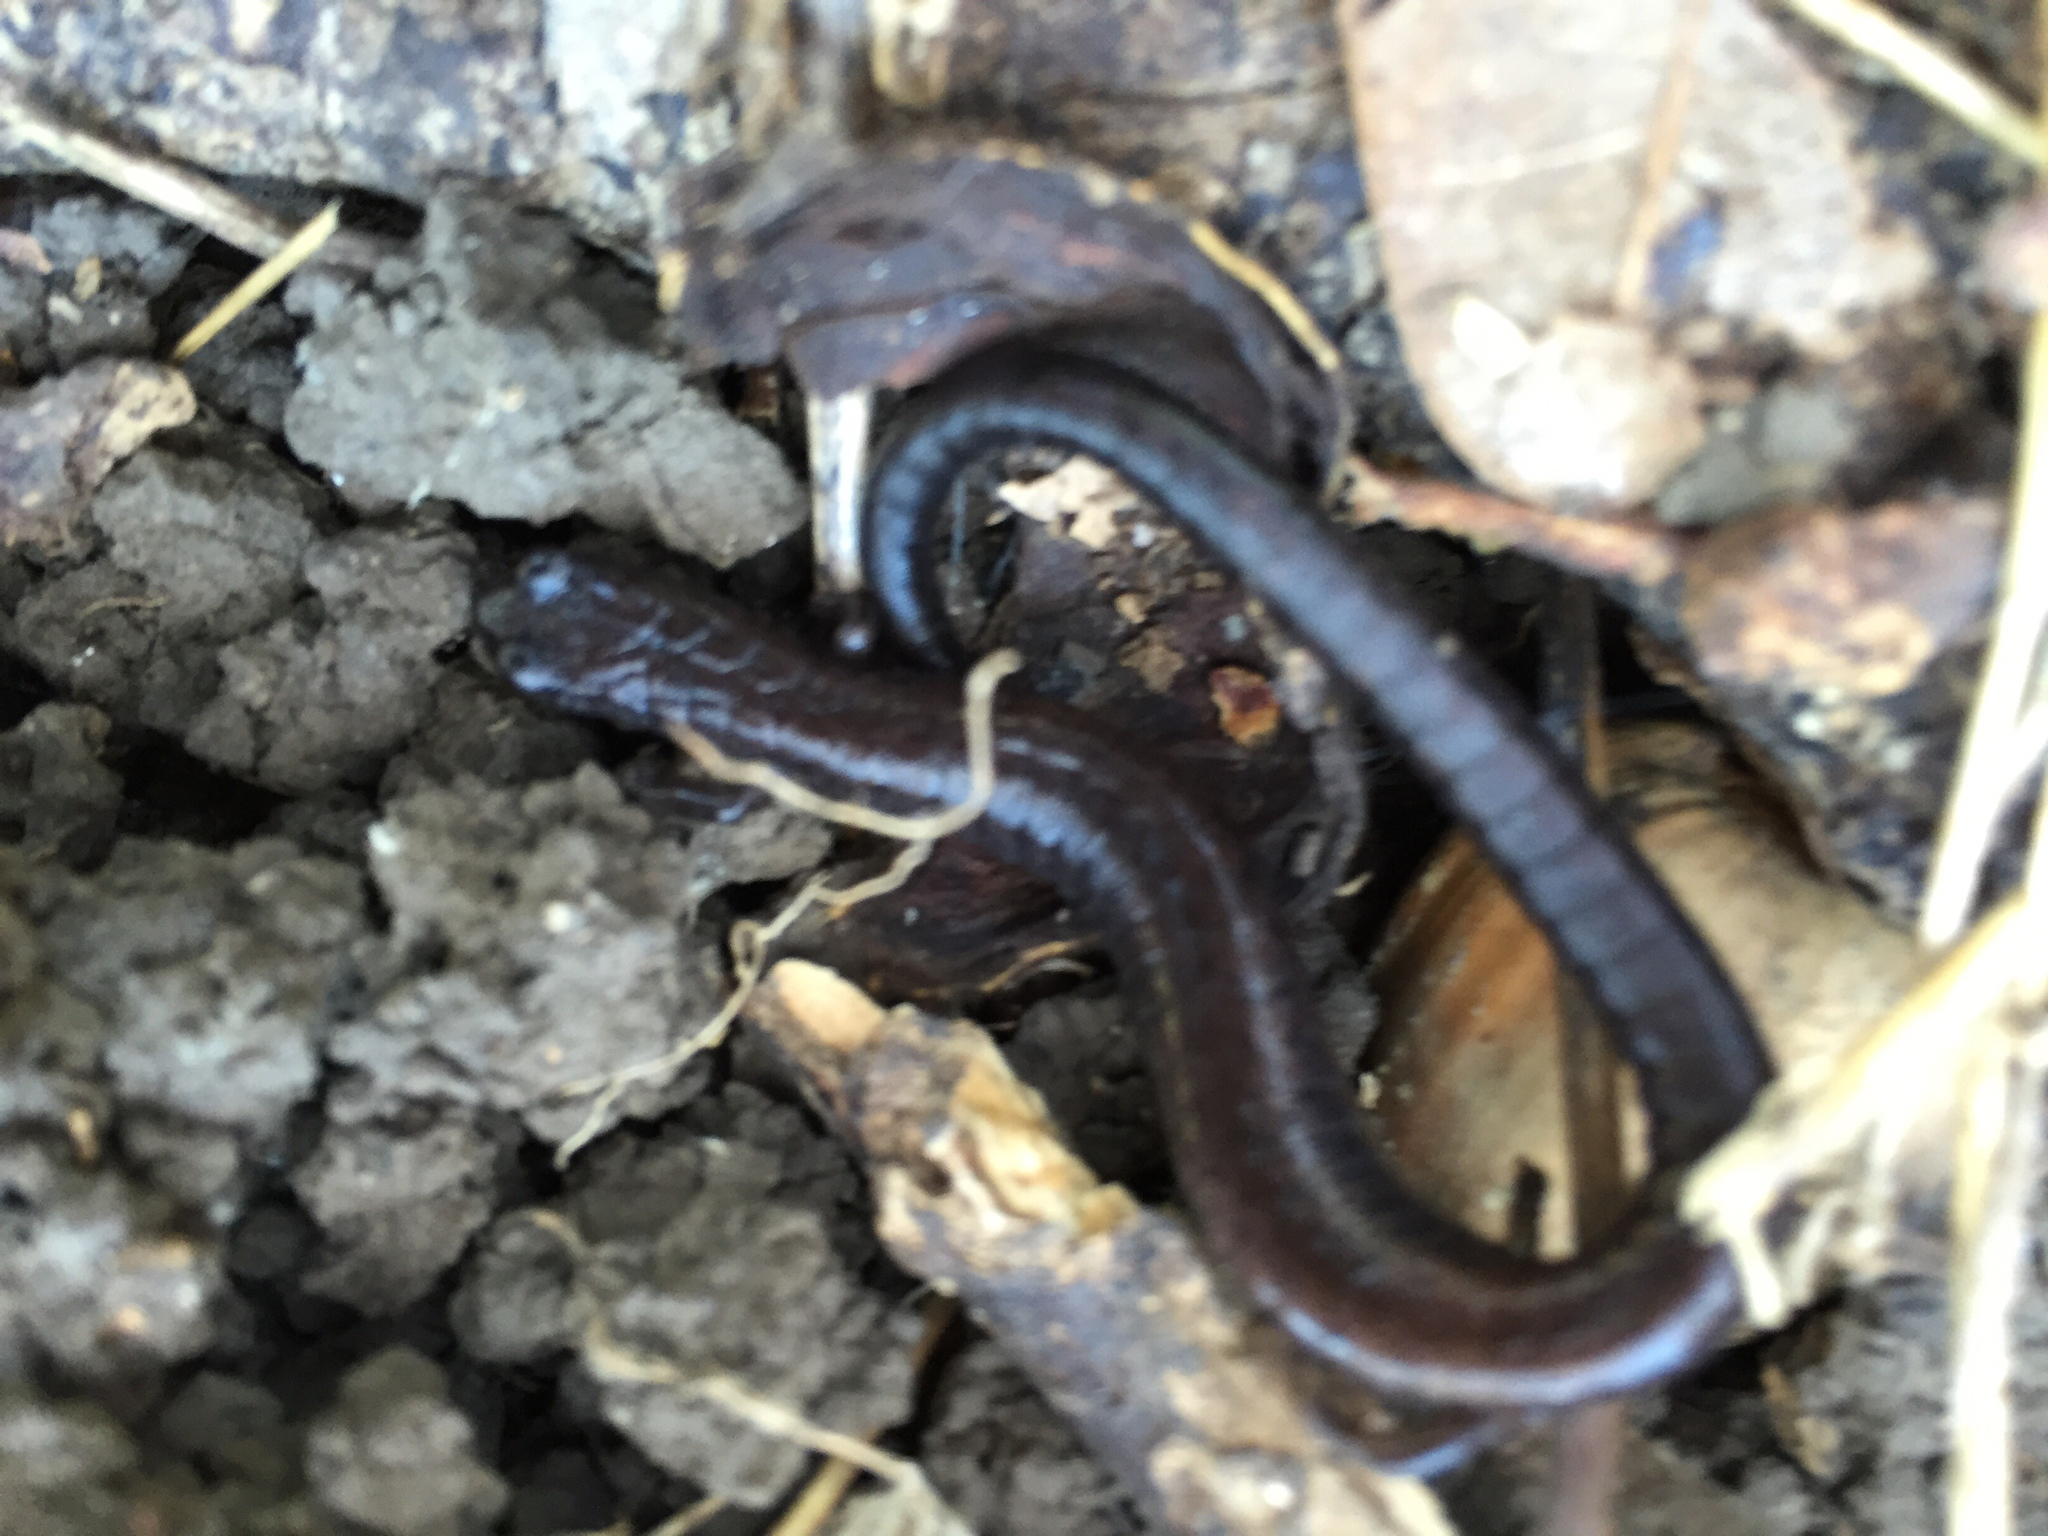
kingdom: Animalia
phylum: Chordata
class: Amphibia
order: Caudata
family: Plethodontidae
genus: Batrachoseps
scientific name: Batrachoseps attenuatus
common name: California slender salamander
